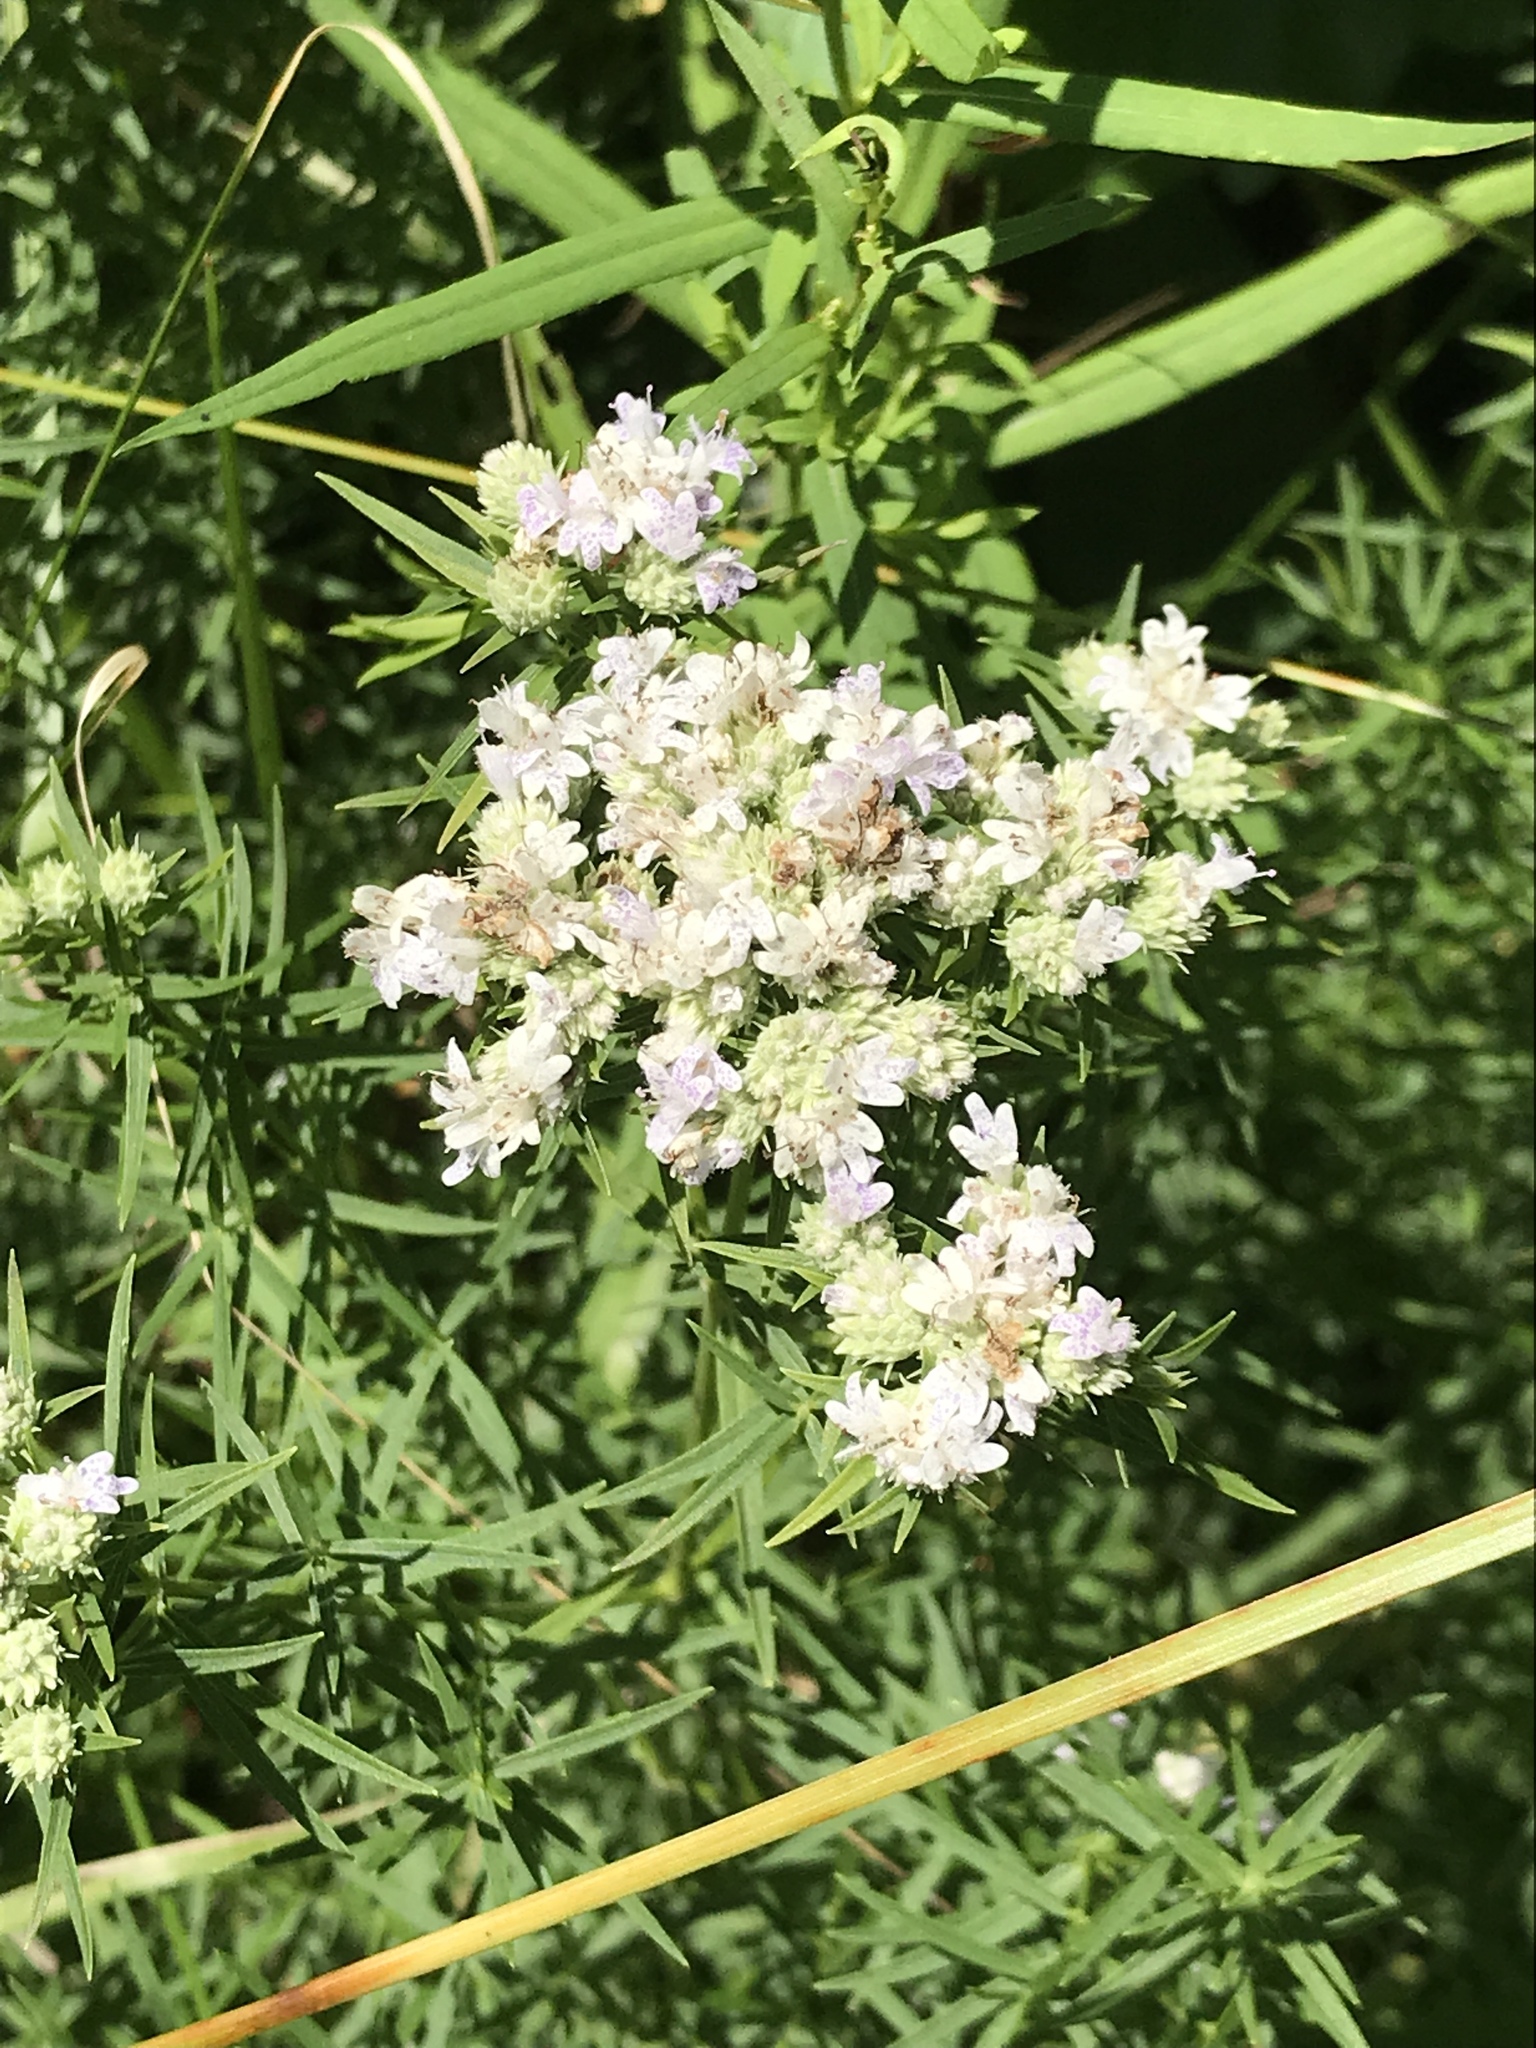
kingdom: Plantae
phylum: Tracheophyta
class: Magnoliopsida
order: Lamiales
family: Lamiaceae
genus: Pycnanthemum
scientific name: Pycnanthemum tenuifolium
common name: Narrow-leaf mountain-mint
